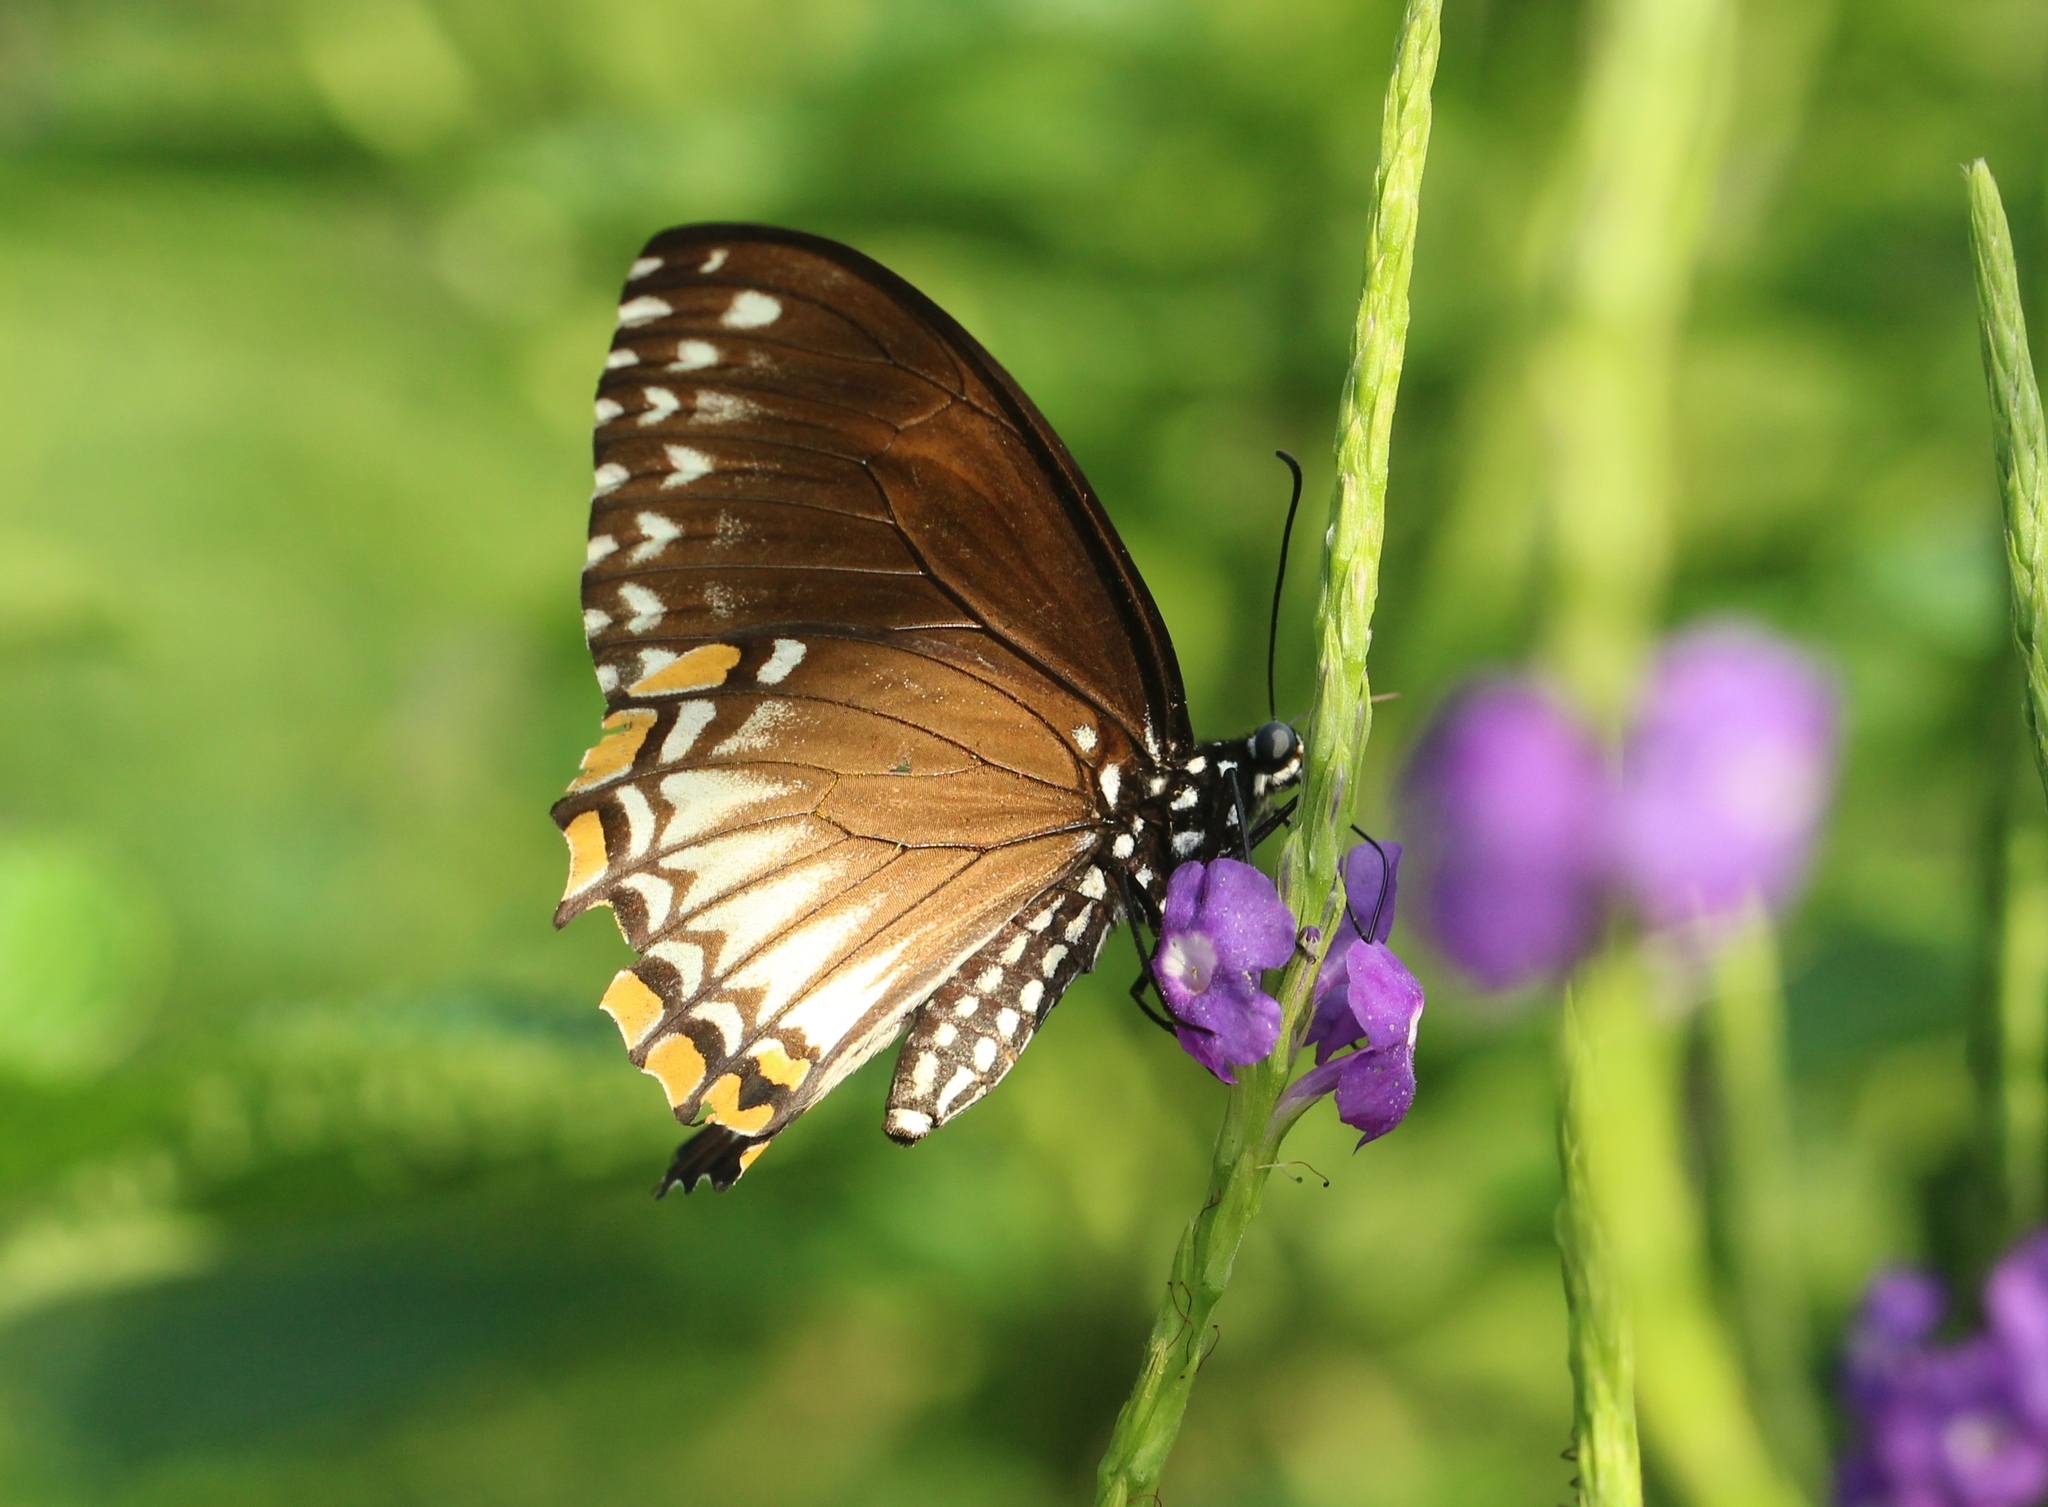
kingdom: Animalia
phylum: Arthropoda
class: Insecta
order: Lepidoptera
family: Papilionidae
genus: Chilasa
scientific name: Chilasa clytia
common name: Common mime
